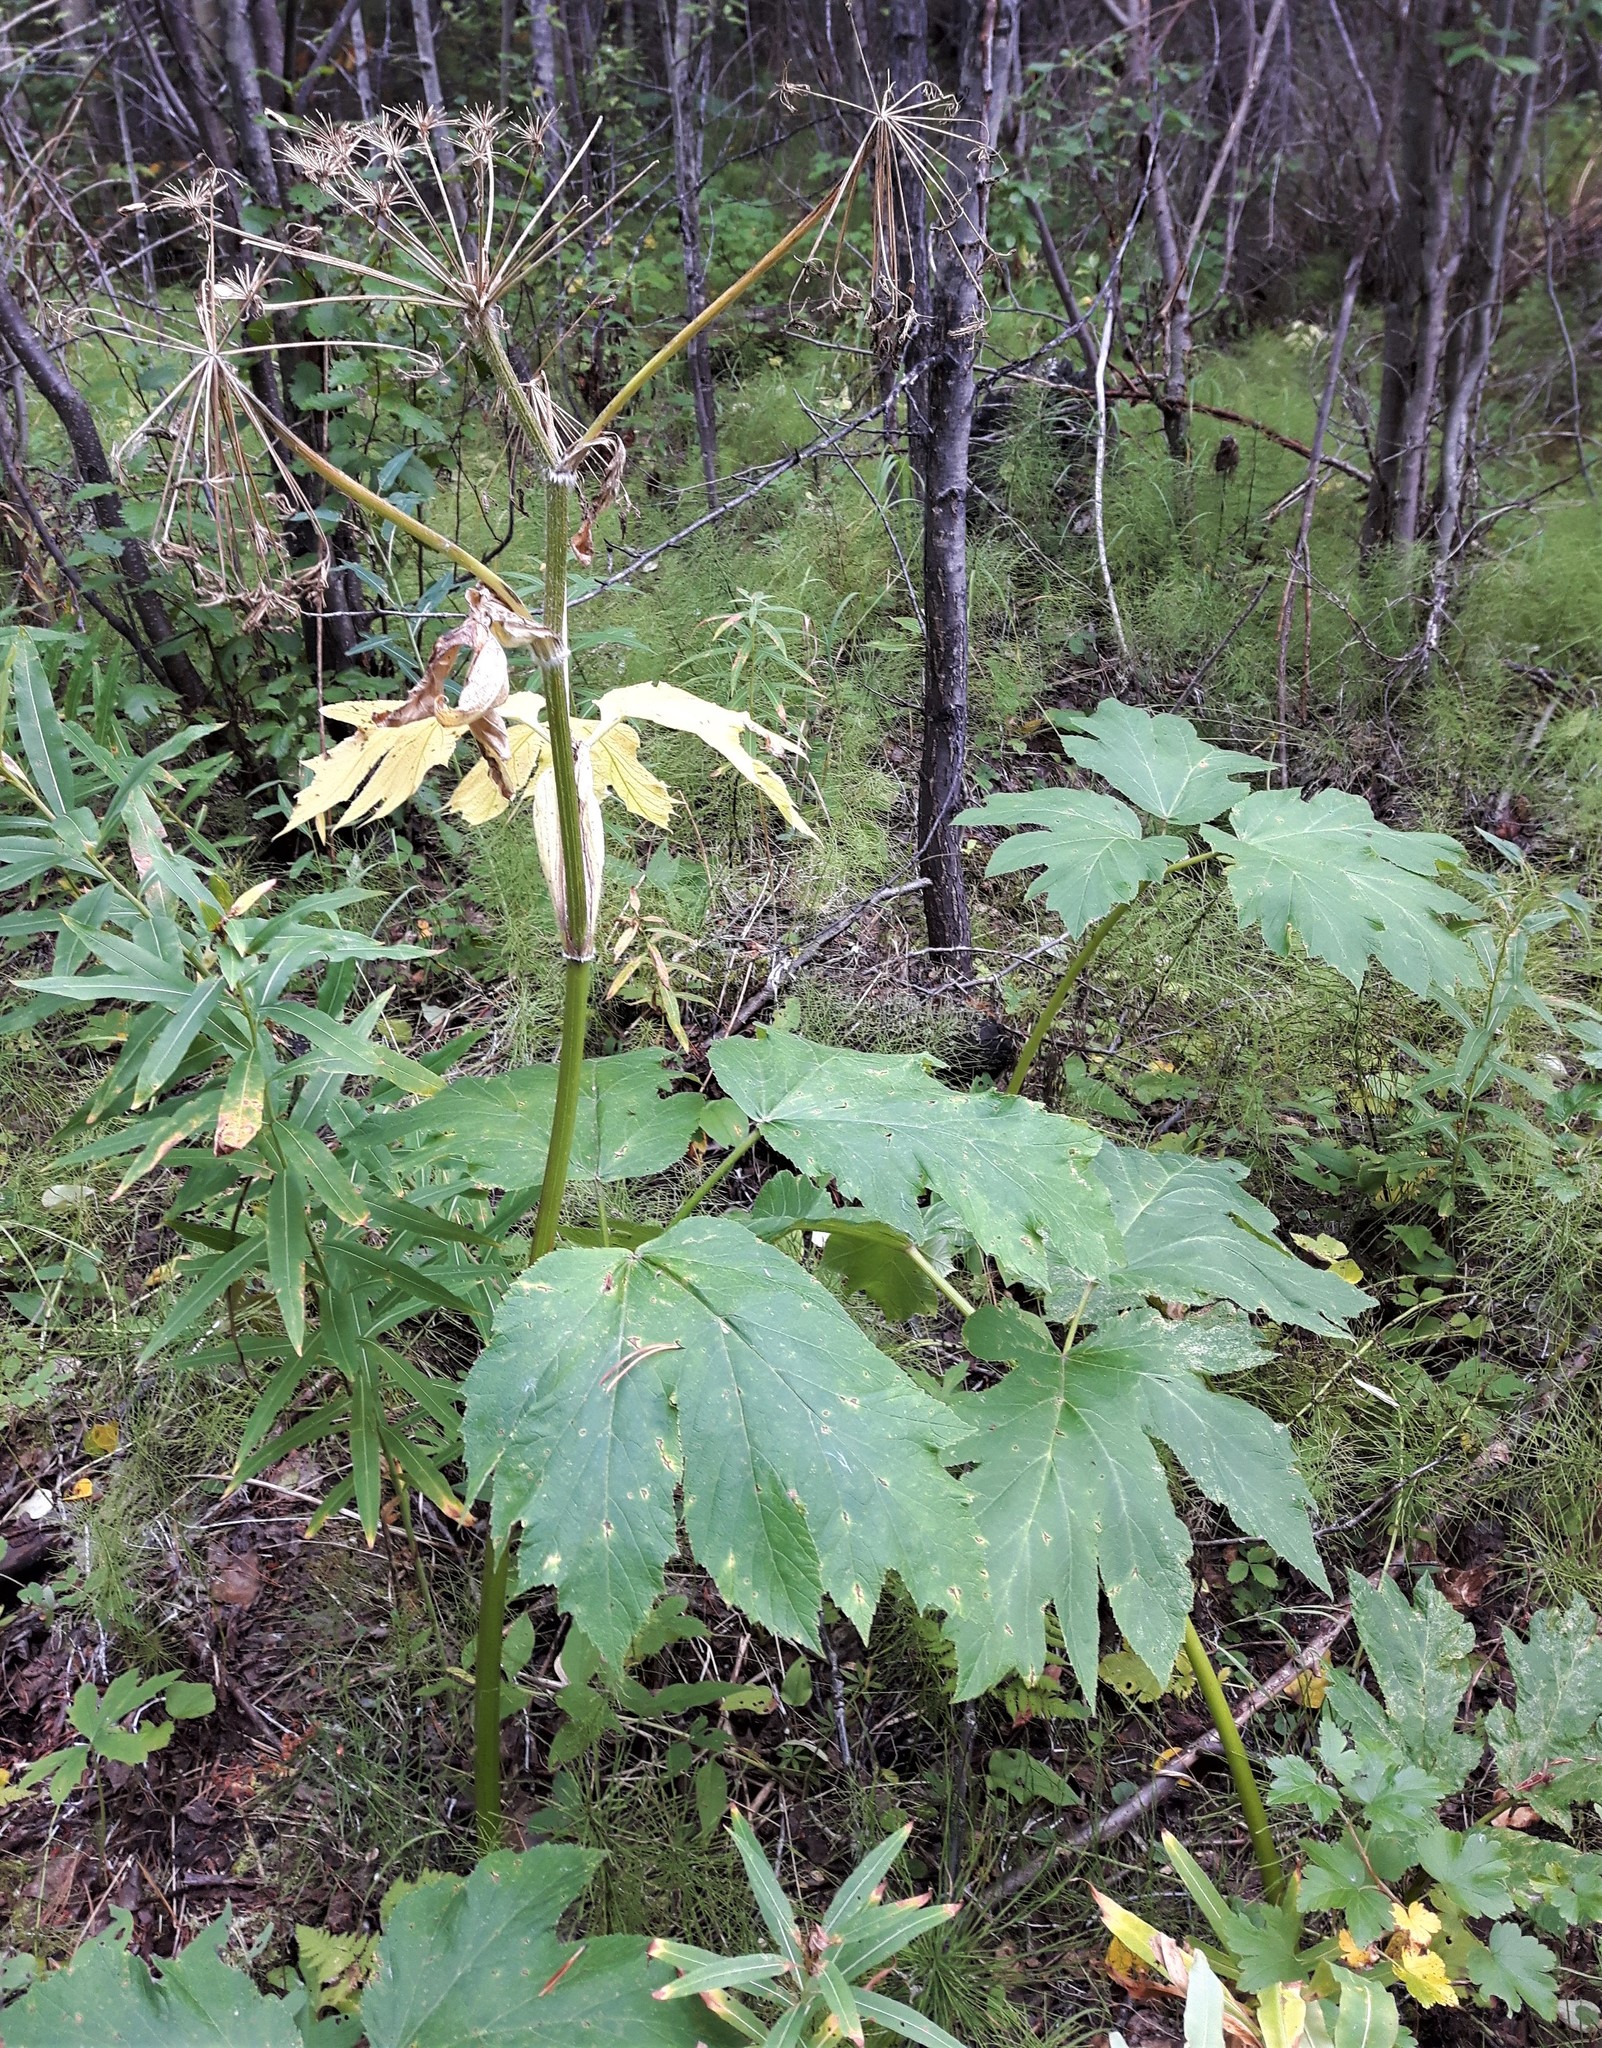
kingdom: Plantae
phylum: Tracheophyta
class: Magnoliopsida
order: Apiales
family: Apiaceae
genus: Heracleum
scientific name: Heracleum maximum
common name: American cow parsnip
